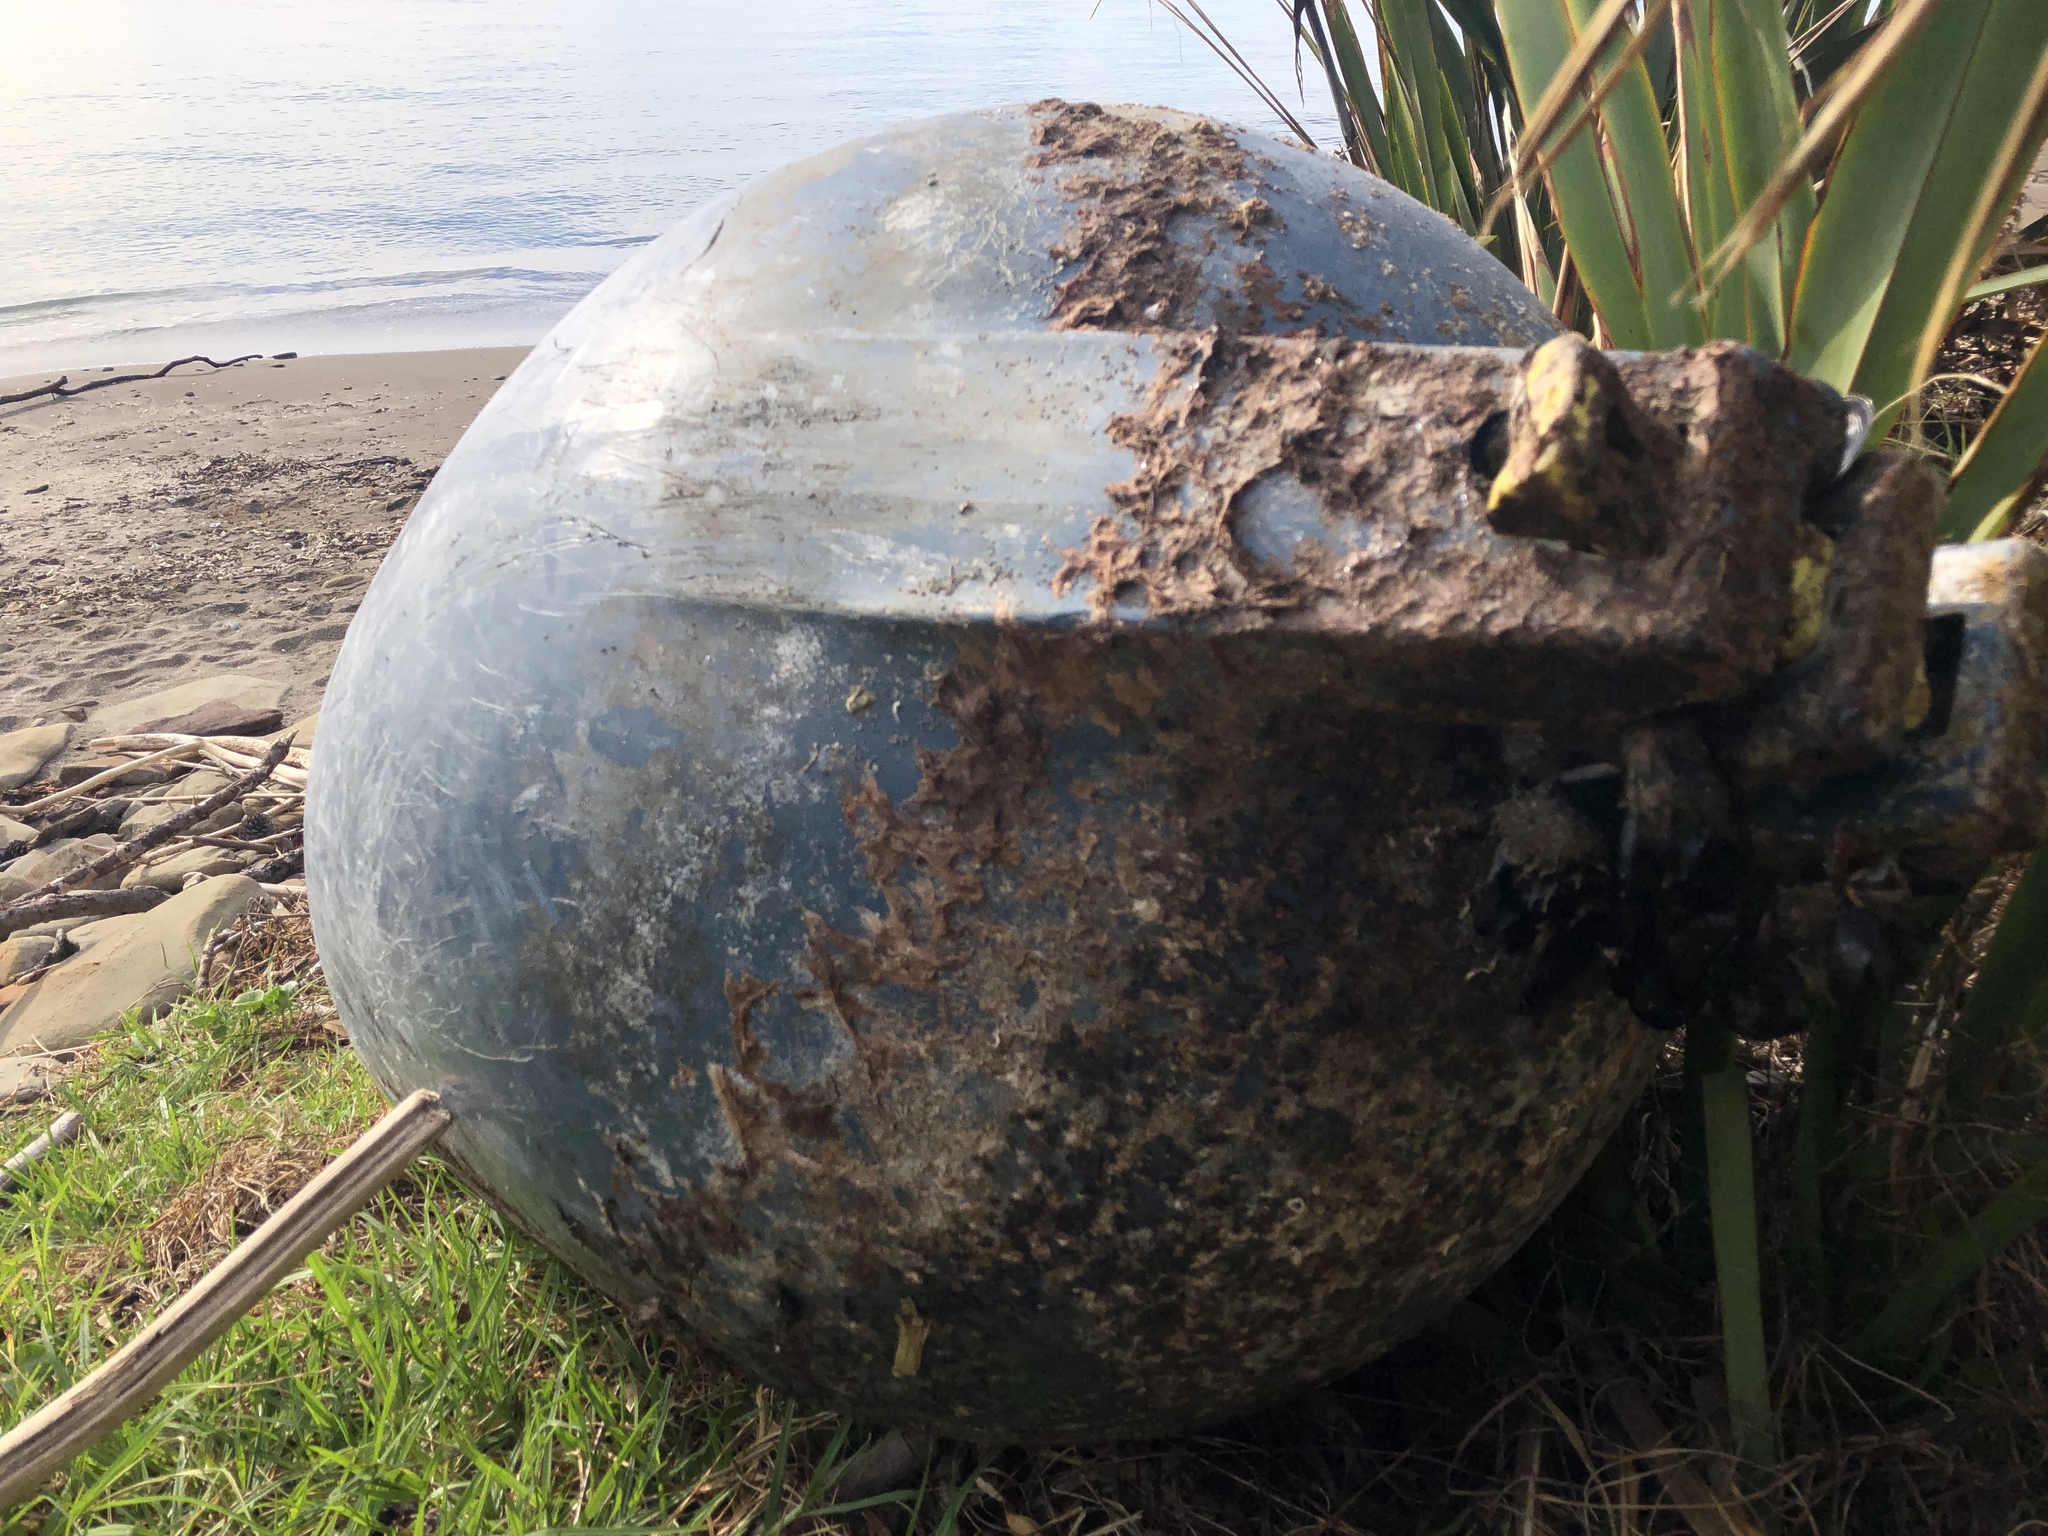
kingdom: Animalia
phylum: Mollusca
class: Bivalvia
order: Mytilida
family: Mytilidae
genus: Mytilus
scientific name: Mytilus planulatus
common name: Australian mussel
